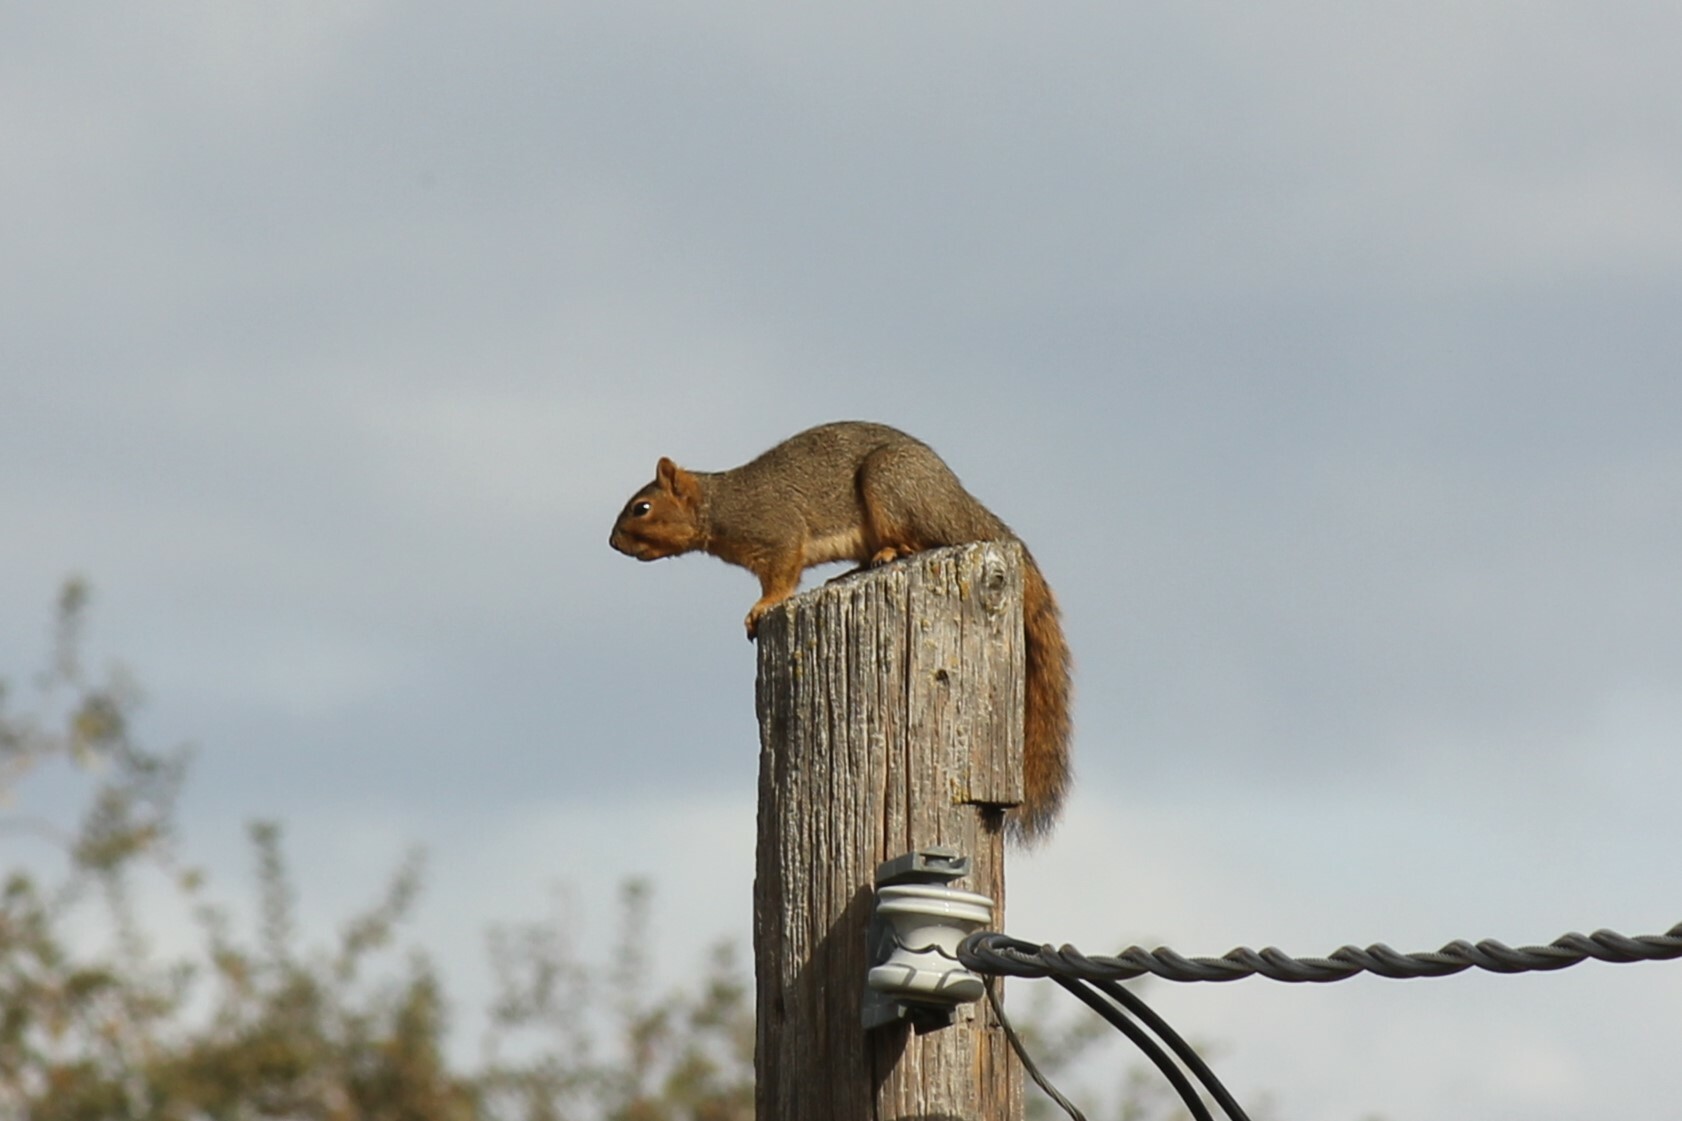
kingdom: Animalia
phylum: Chordata
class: Mammalia
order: Rodentia
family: Sciuridae
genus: Sciurus
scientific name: Sciurus niger
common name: Fox squirrel
